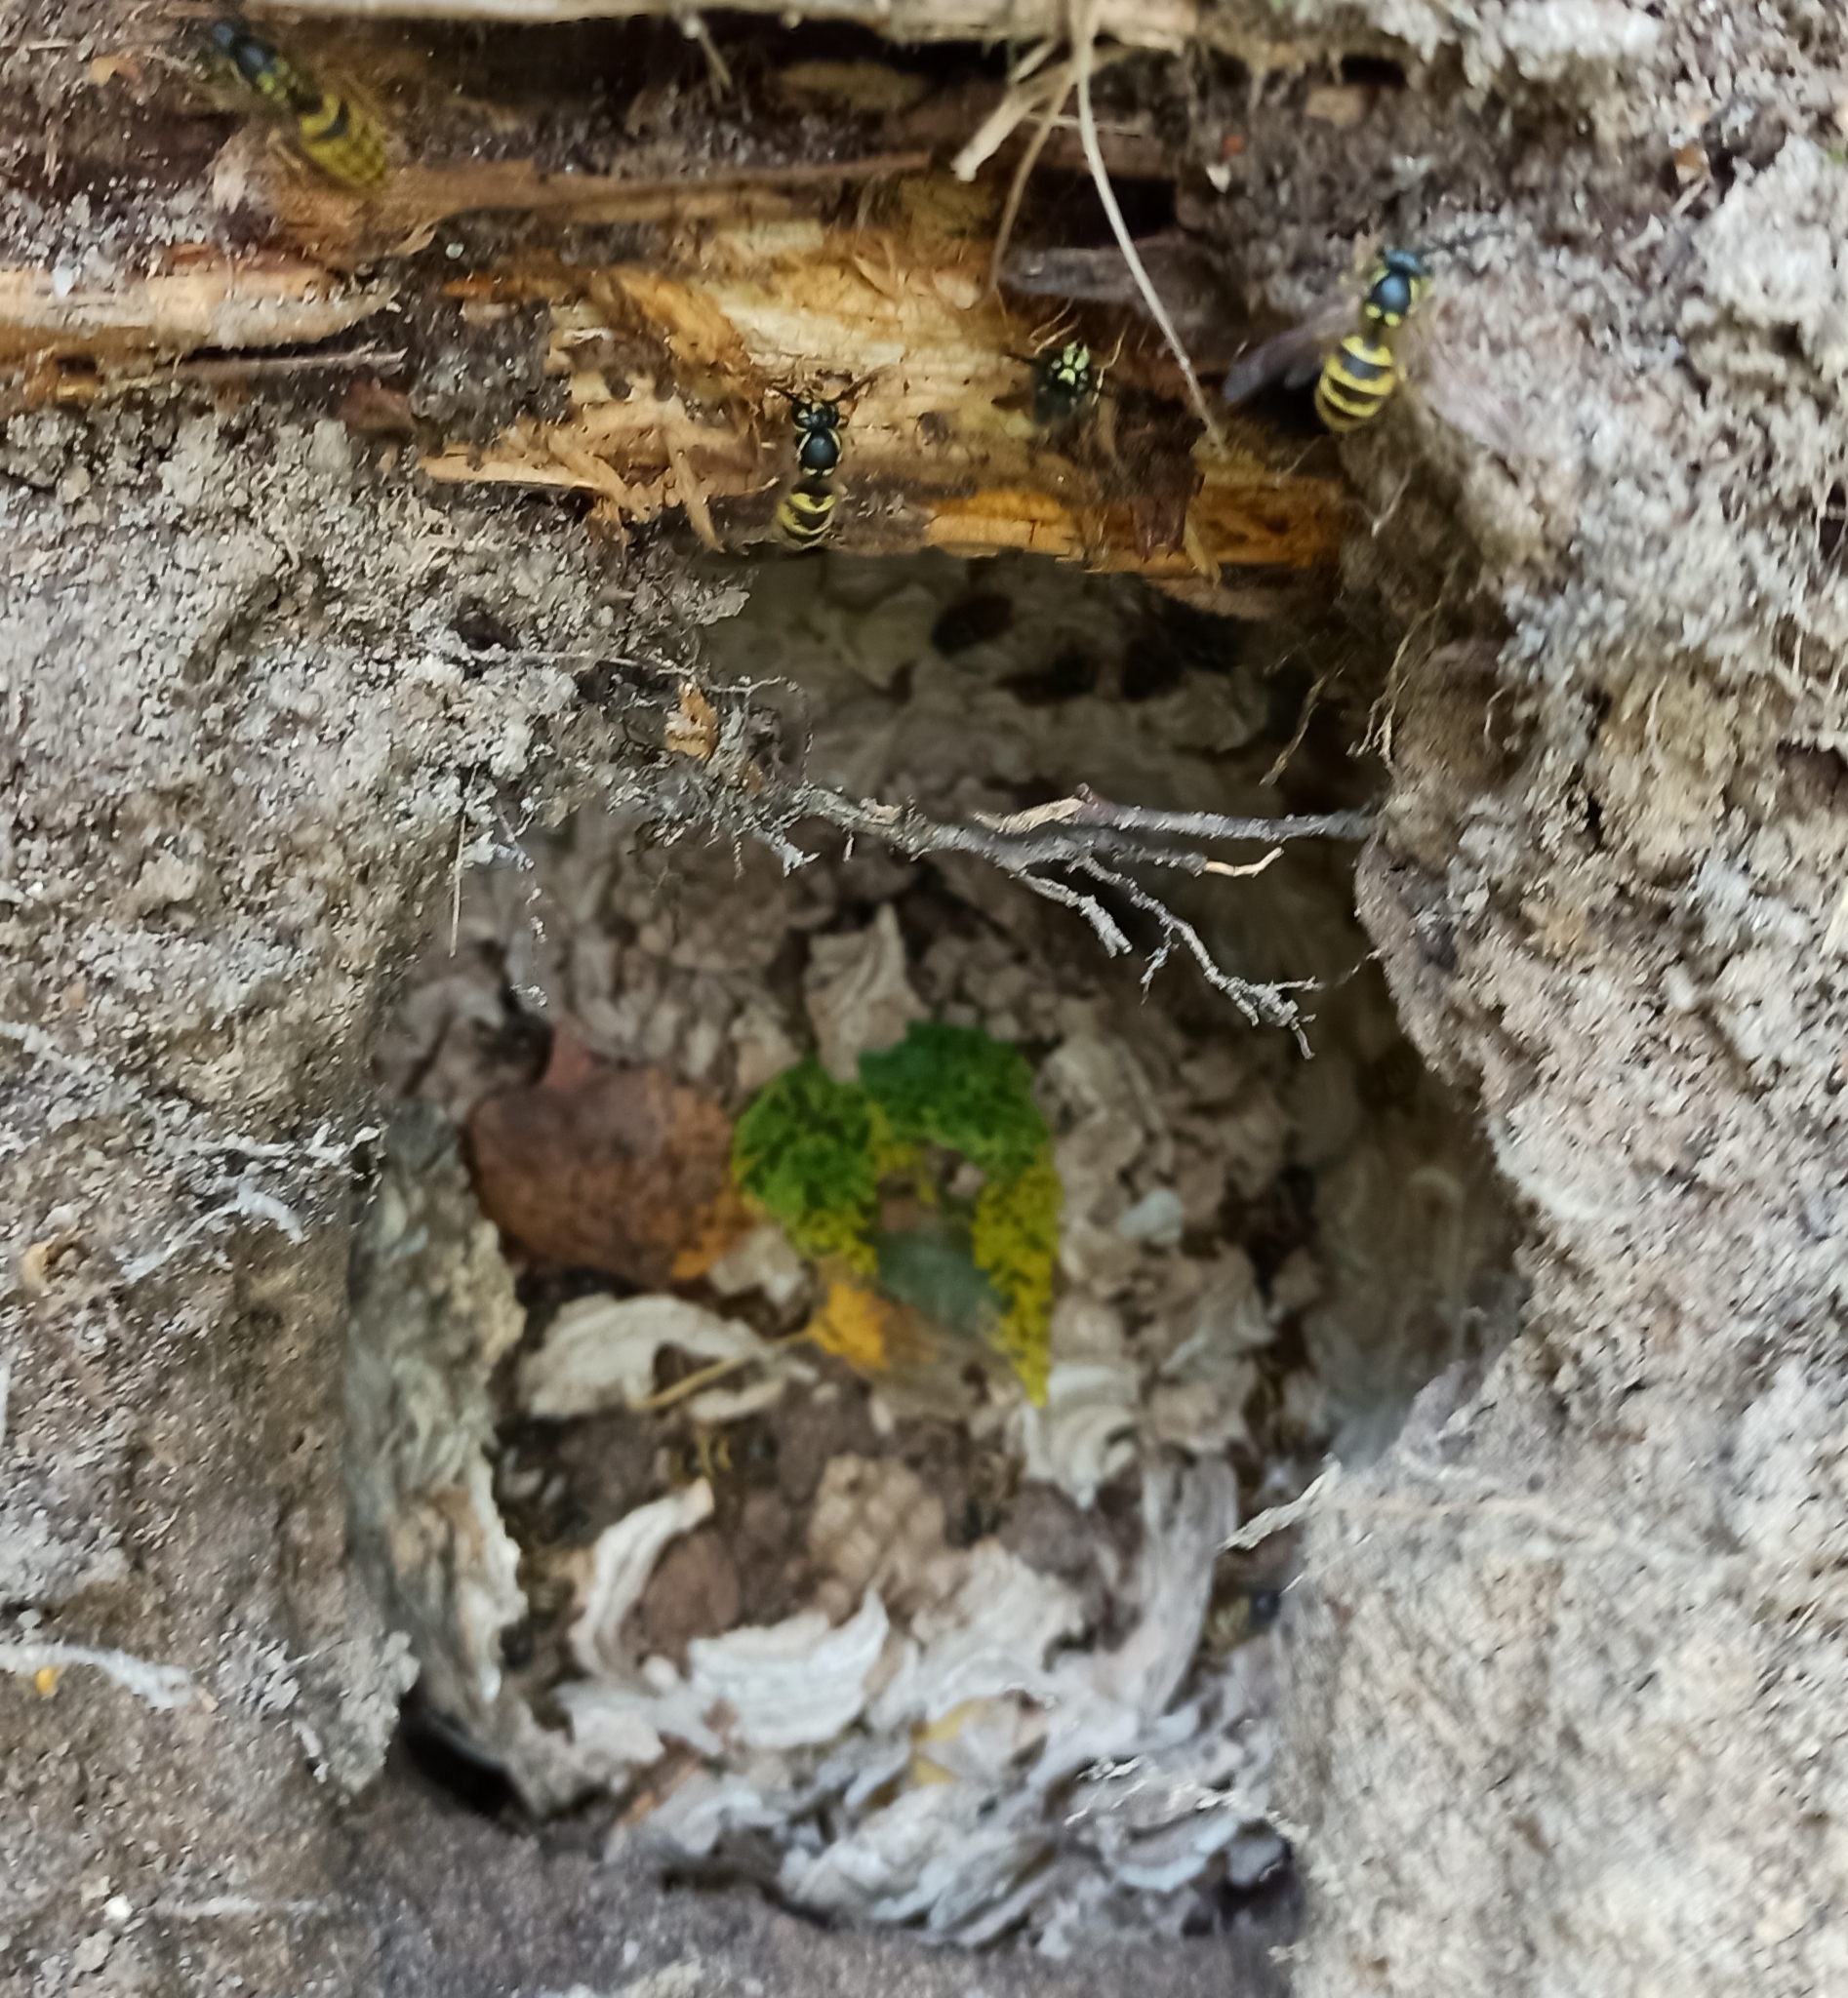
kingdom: Animalia
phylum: Arthropoda
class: Insecta
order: Hymenoptera
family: Vespidae
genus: Vespula
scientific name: Vespula vulgaris
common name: Common wasp
